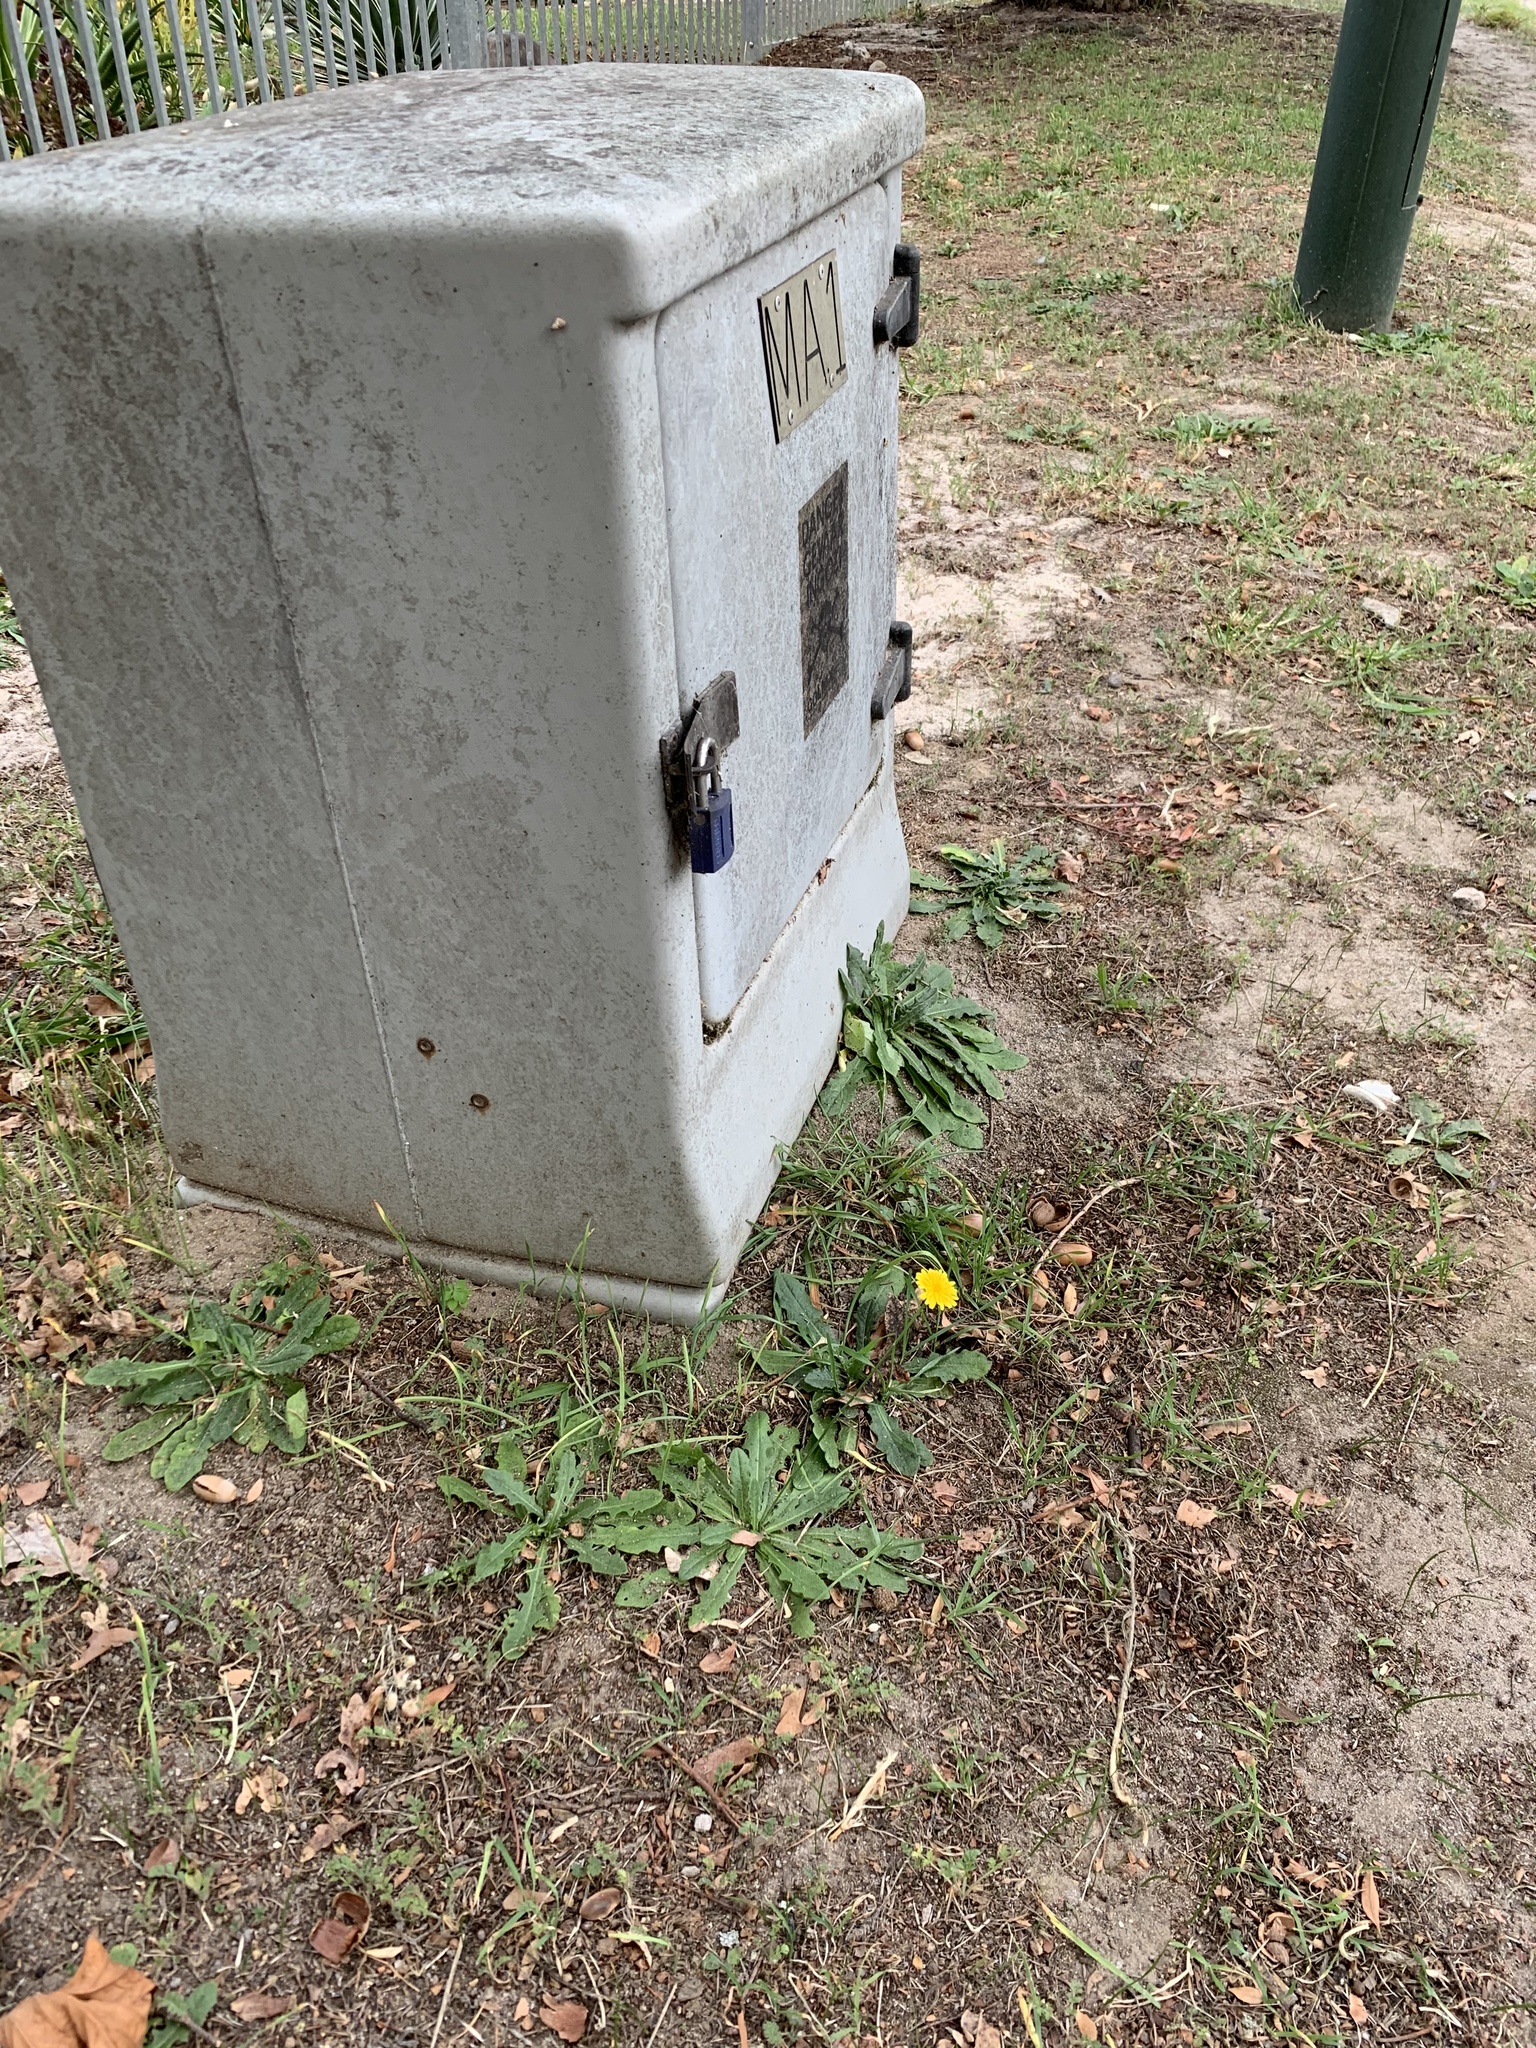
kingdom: Plantae
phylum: Tracheophyta
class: Magnoliopsida
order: Asterales
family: Asteraceae
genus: Hypochaeris
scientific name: Hypochaeris radicata
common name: Flatweed
